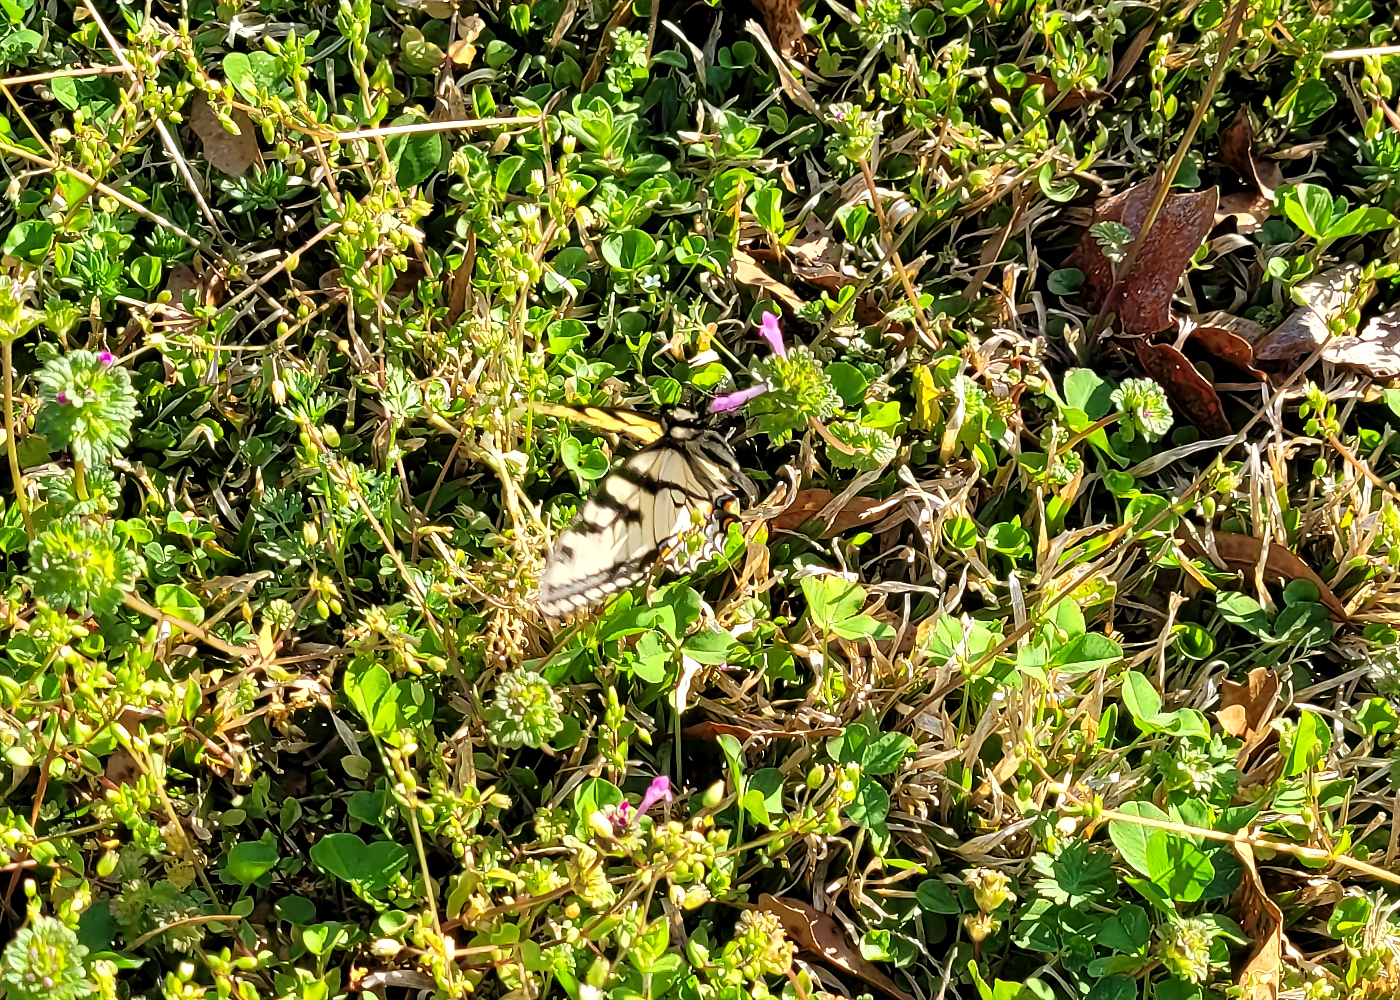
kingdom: Animalia
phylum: Arthropoda
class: Insecta
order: Lepidoptera
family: Papilionidae
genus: Papilio
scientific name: Papilio glaucus
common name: Tiger swallowtail
